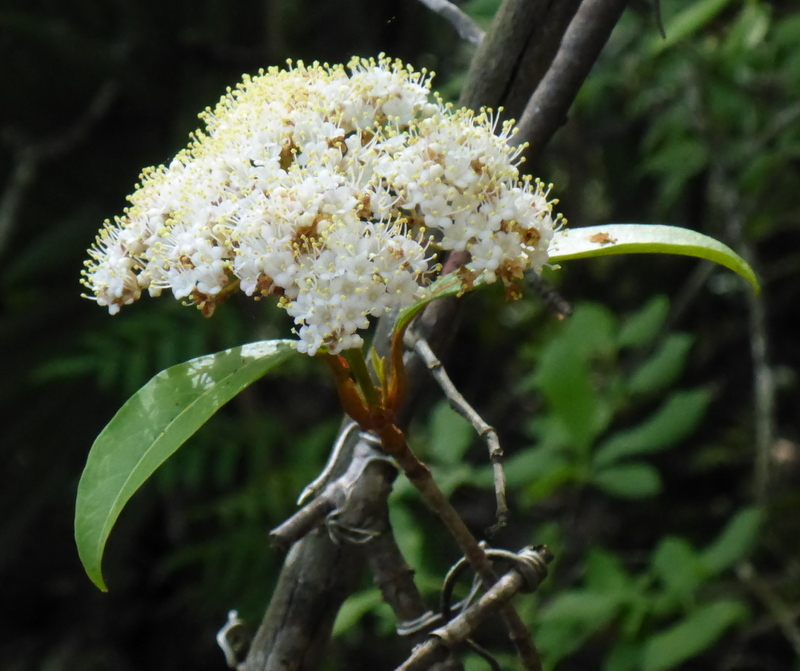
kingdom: Plantae
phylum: Tracheophyta
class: Magnoliopsida
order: Dipsacales
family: Viburnaceae
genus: Viburnum
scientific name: Viburnum nudum
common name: Possum haw
